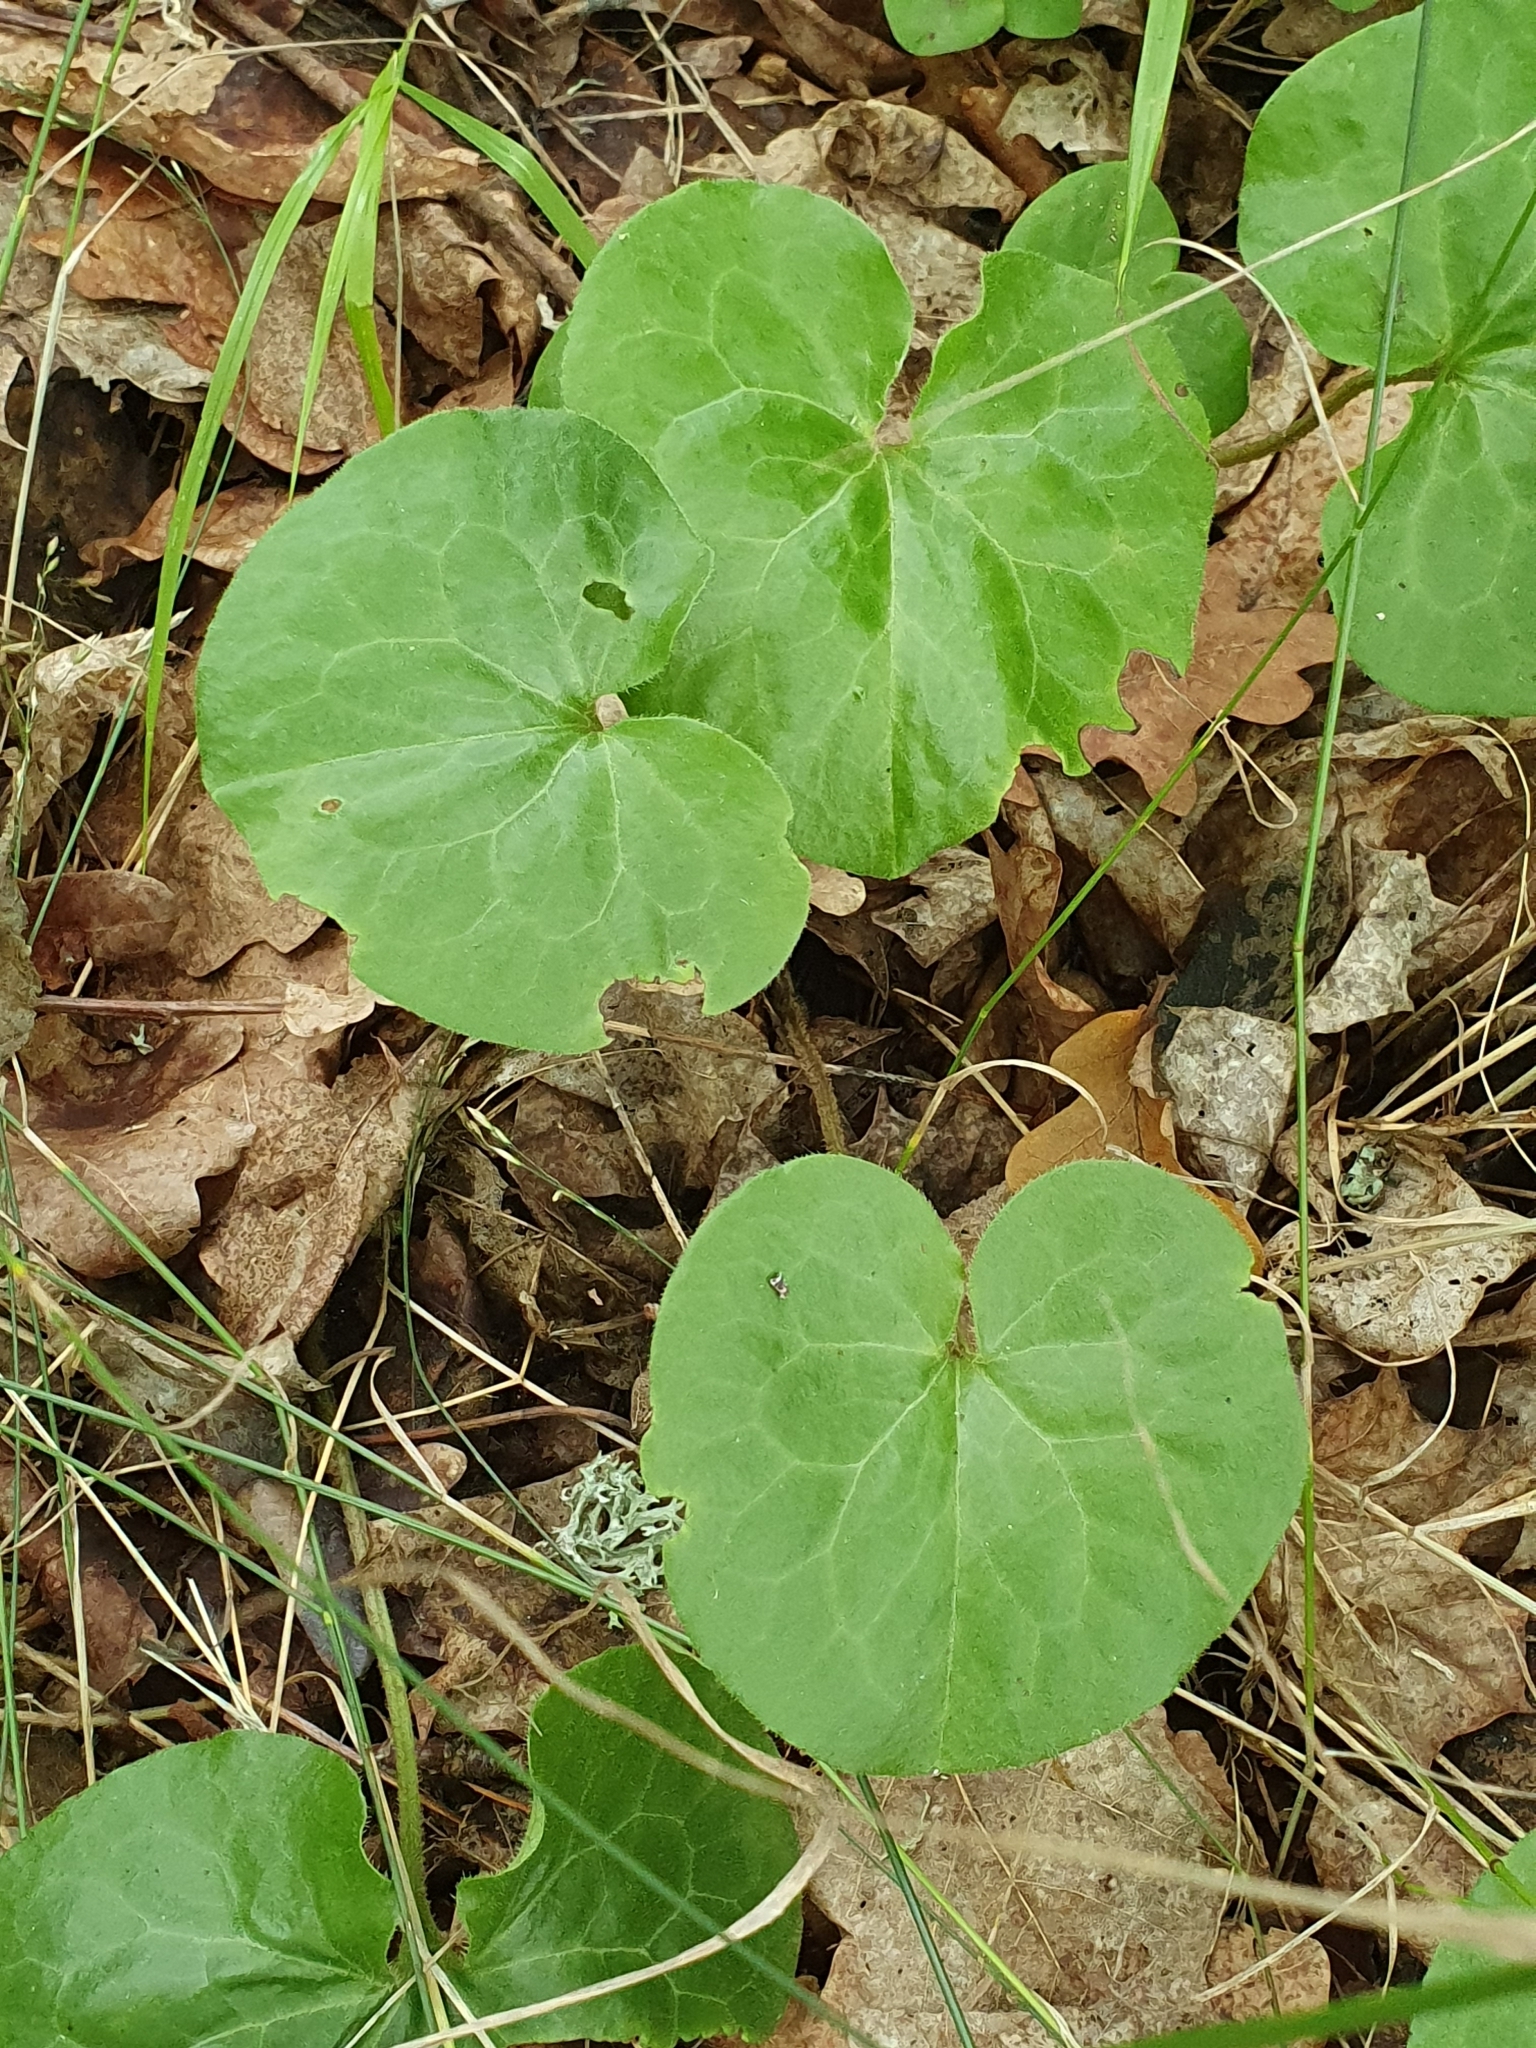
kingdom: Plantae
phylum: Tracheophyta
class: Magnoliopsida
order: Piperales
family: Aristolochiaceae
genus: Asarum
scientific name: Asarum europaeum
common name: Asarabacca
